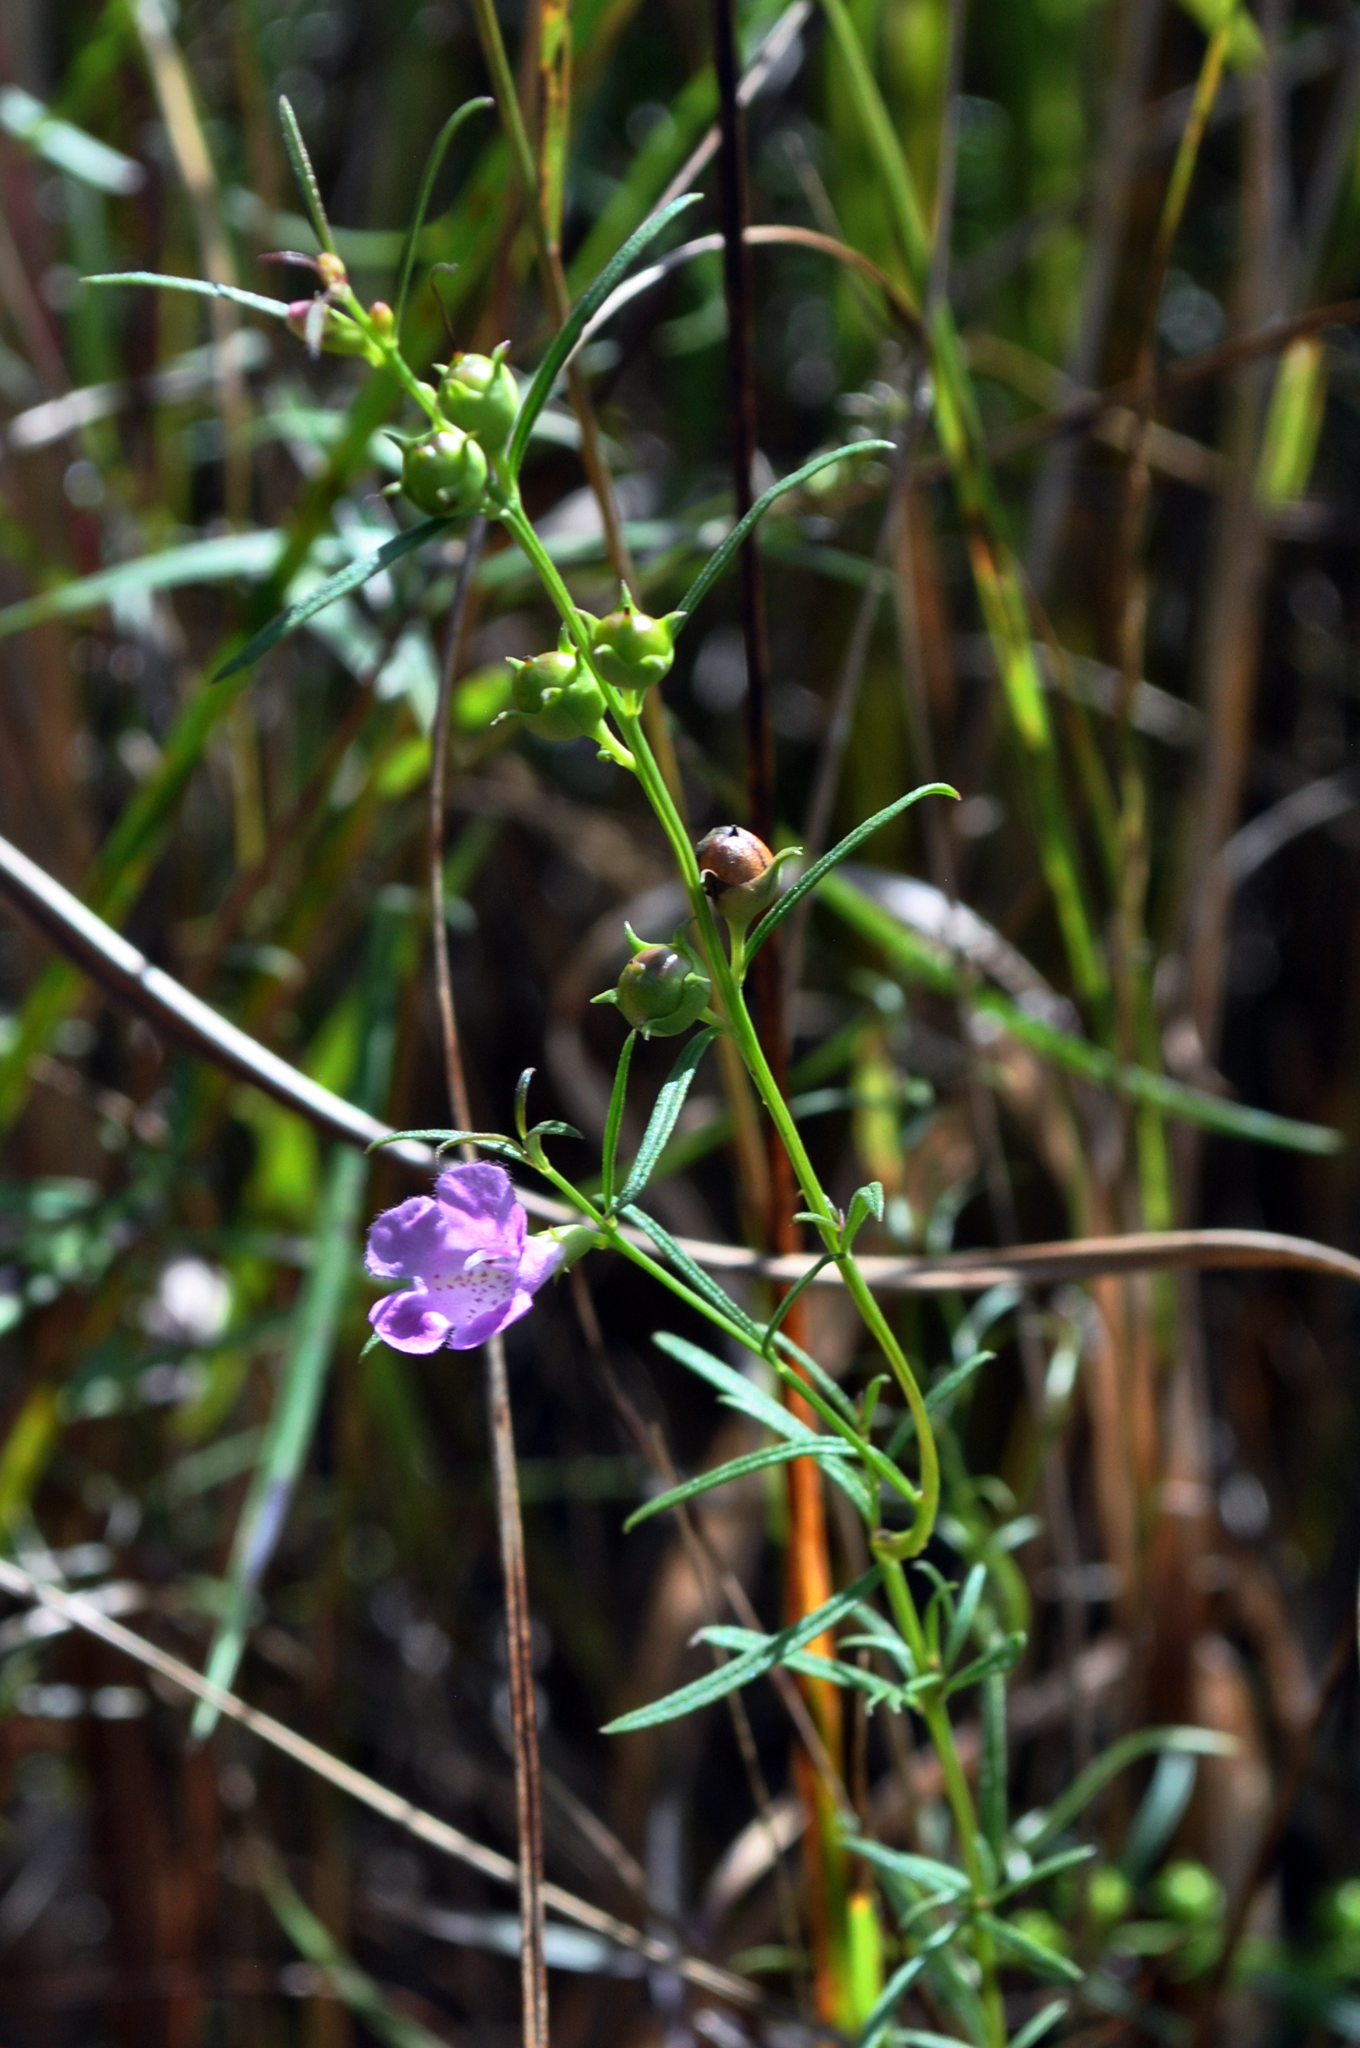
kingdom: Plantae
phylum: Tracheophyta
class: Magnoliopsida
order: Lamiales
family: Orobanchaceae
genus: Agalinis
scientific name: Agalinis purpurea
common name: Purple false foxglove
